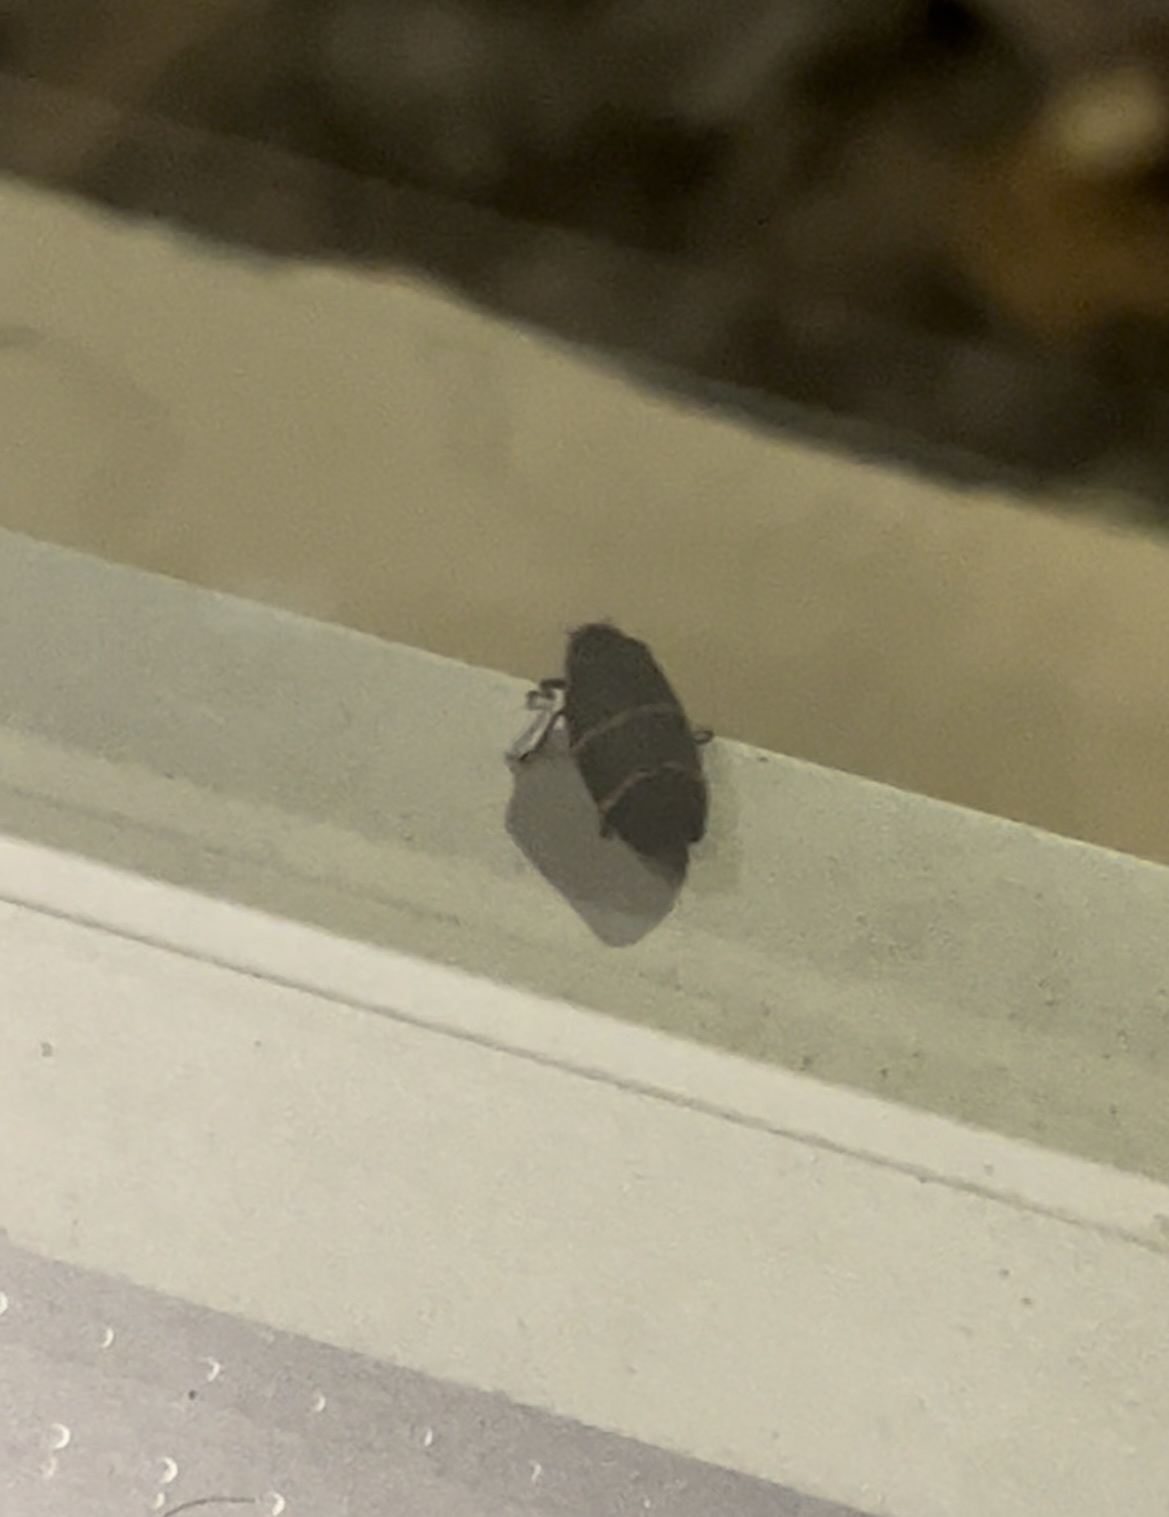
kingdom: Animalia
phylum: Arthropoda
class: Insecta
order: Hemiptera
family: Cercopidae
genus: Prosapia
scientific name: Prosapia bicincta
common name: Twolined spittlebug
